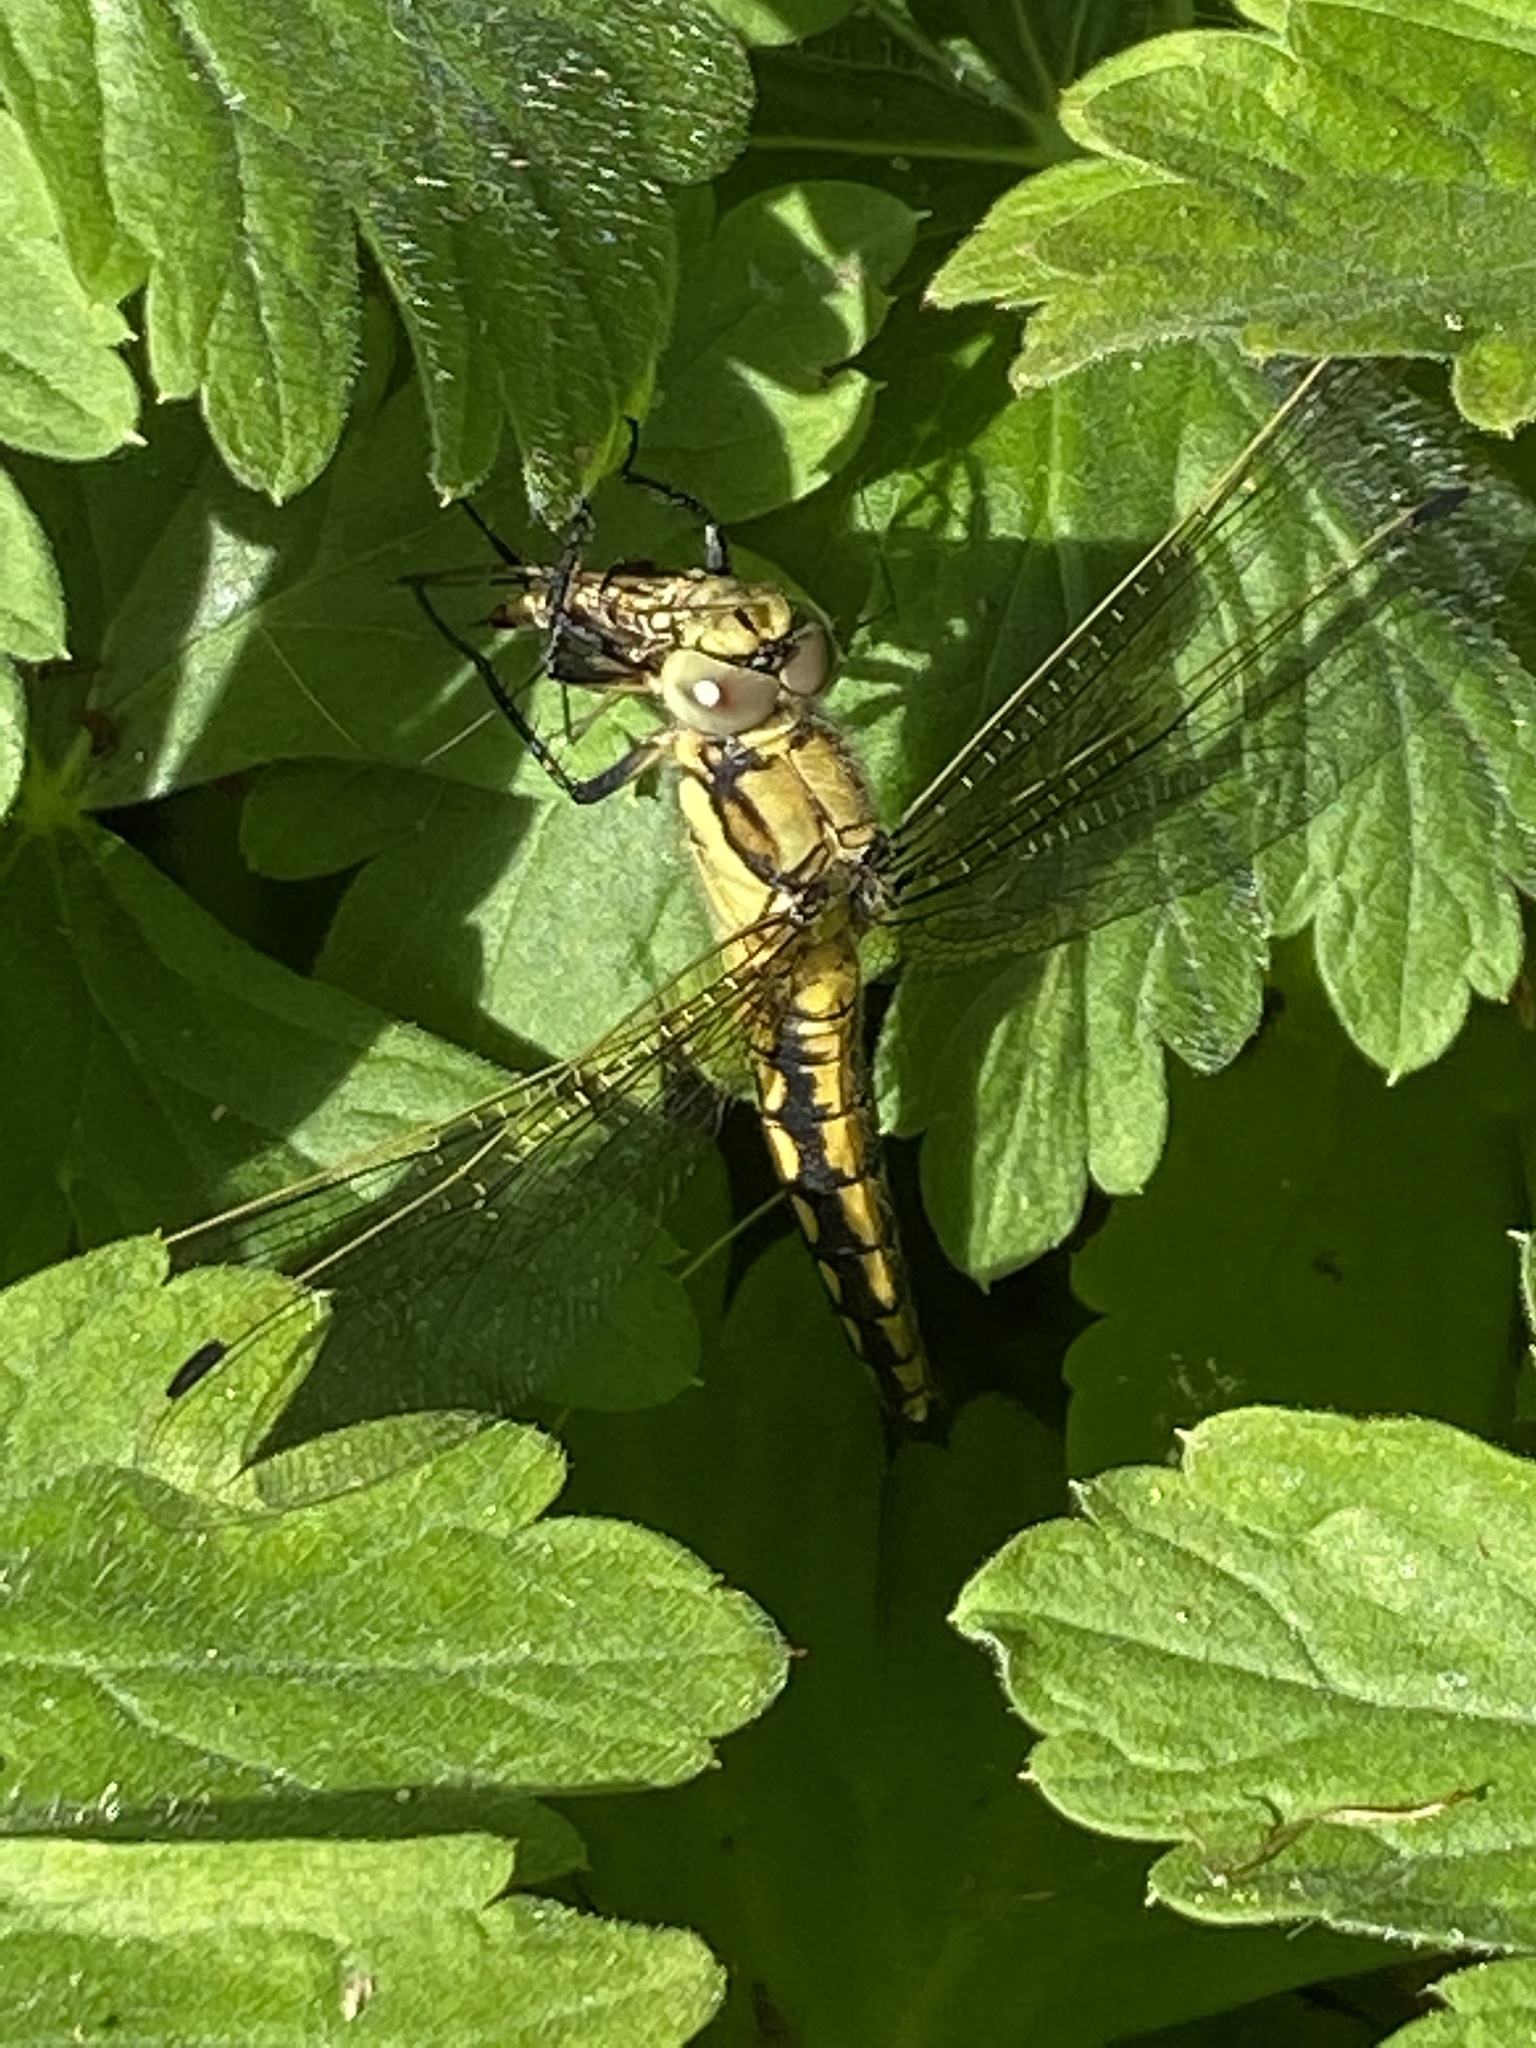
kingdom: Animalia
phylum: Arthropoda
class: Insecta
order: Odonata
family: Libellulidae
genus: Orthetrum
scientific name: Orthetrum cancellatum
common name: Black-tailed skimmer
